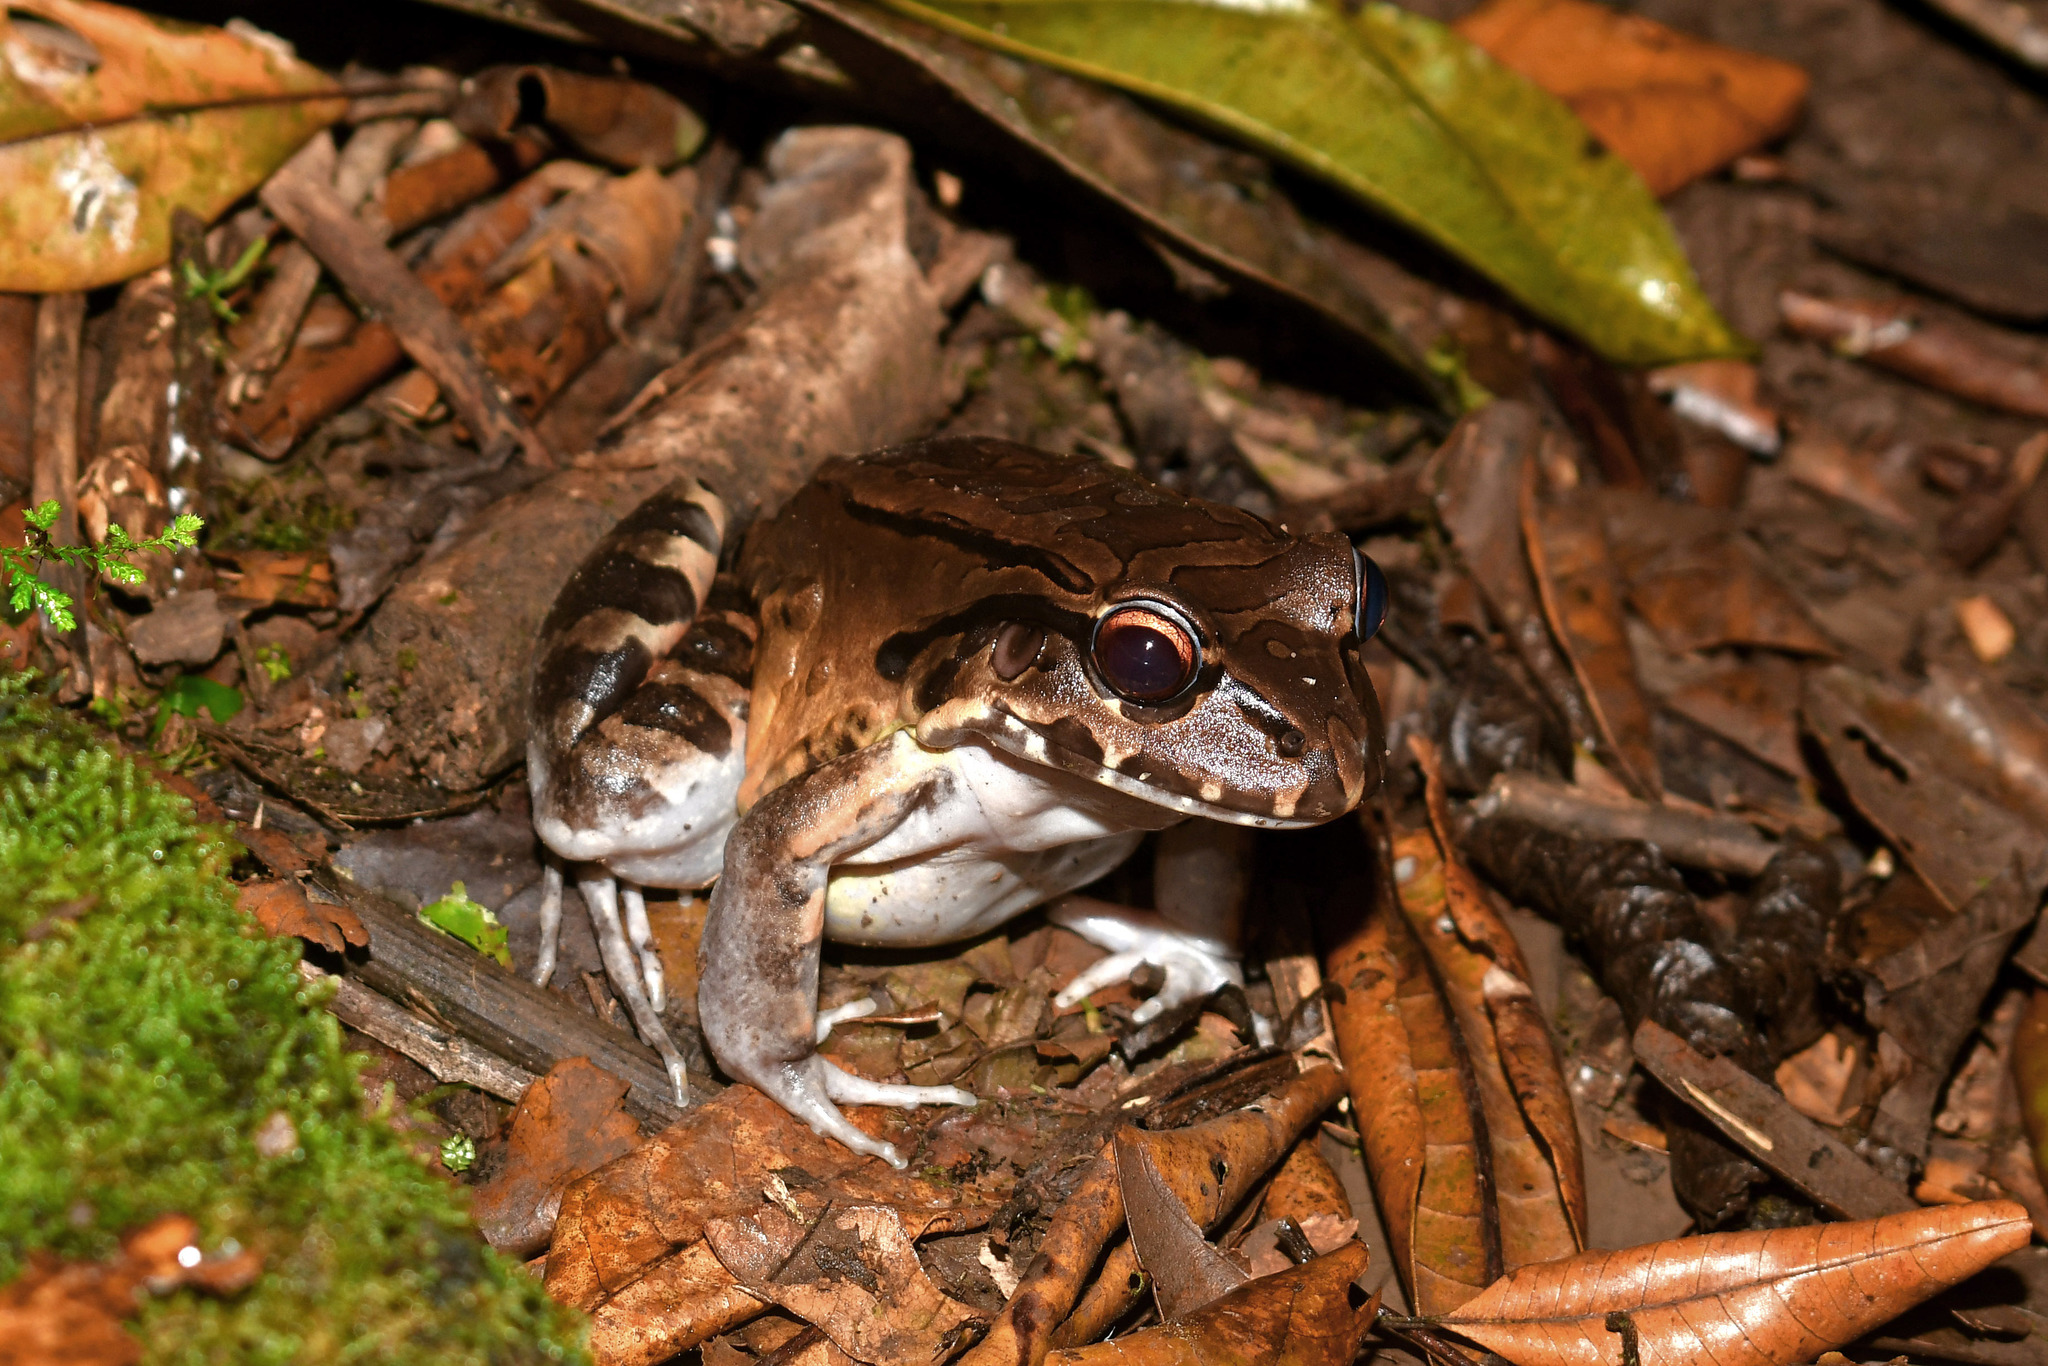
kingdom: Animalia
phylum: Chordata
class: Amphibia
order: Anura
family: Leptodactylidae
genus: Leptodactylus
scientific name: Leptodactylus savagei
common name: Savage's thin-toed frog
